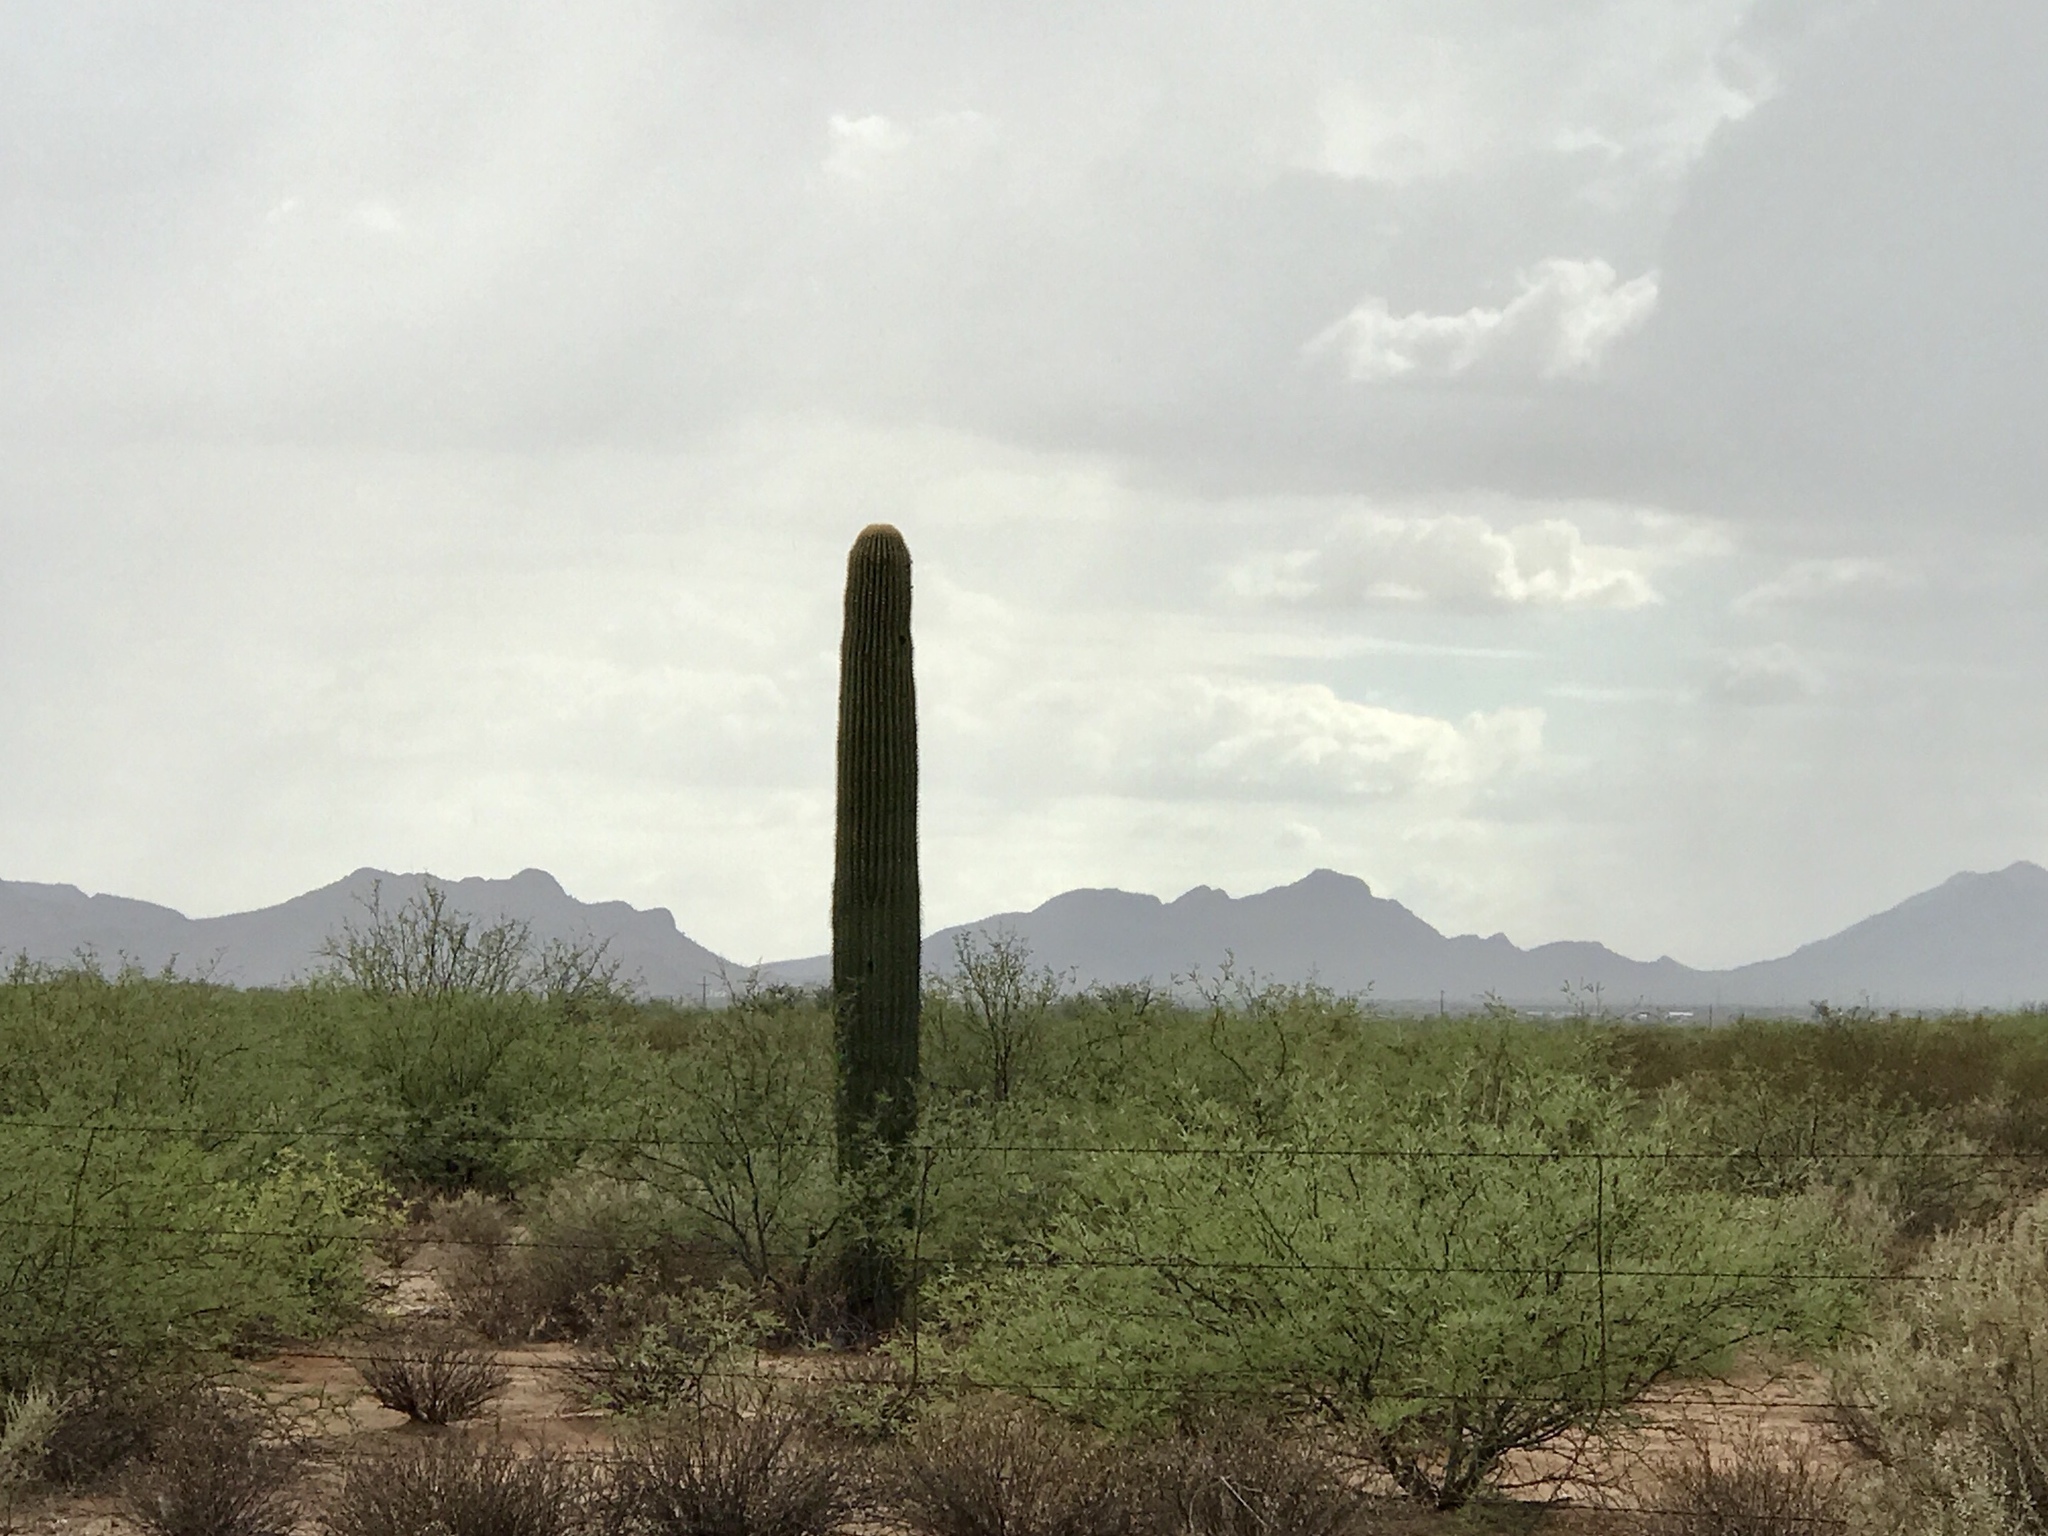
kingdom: Plantae
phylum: Tracheophyta
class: Magnoliopsida
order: Caryophyllales
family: Cactaceae
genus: Carnegiea
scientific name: Carnegiea gigantea
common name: Saguaro
